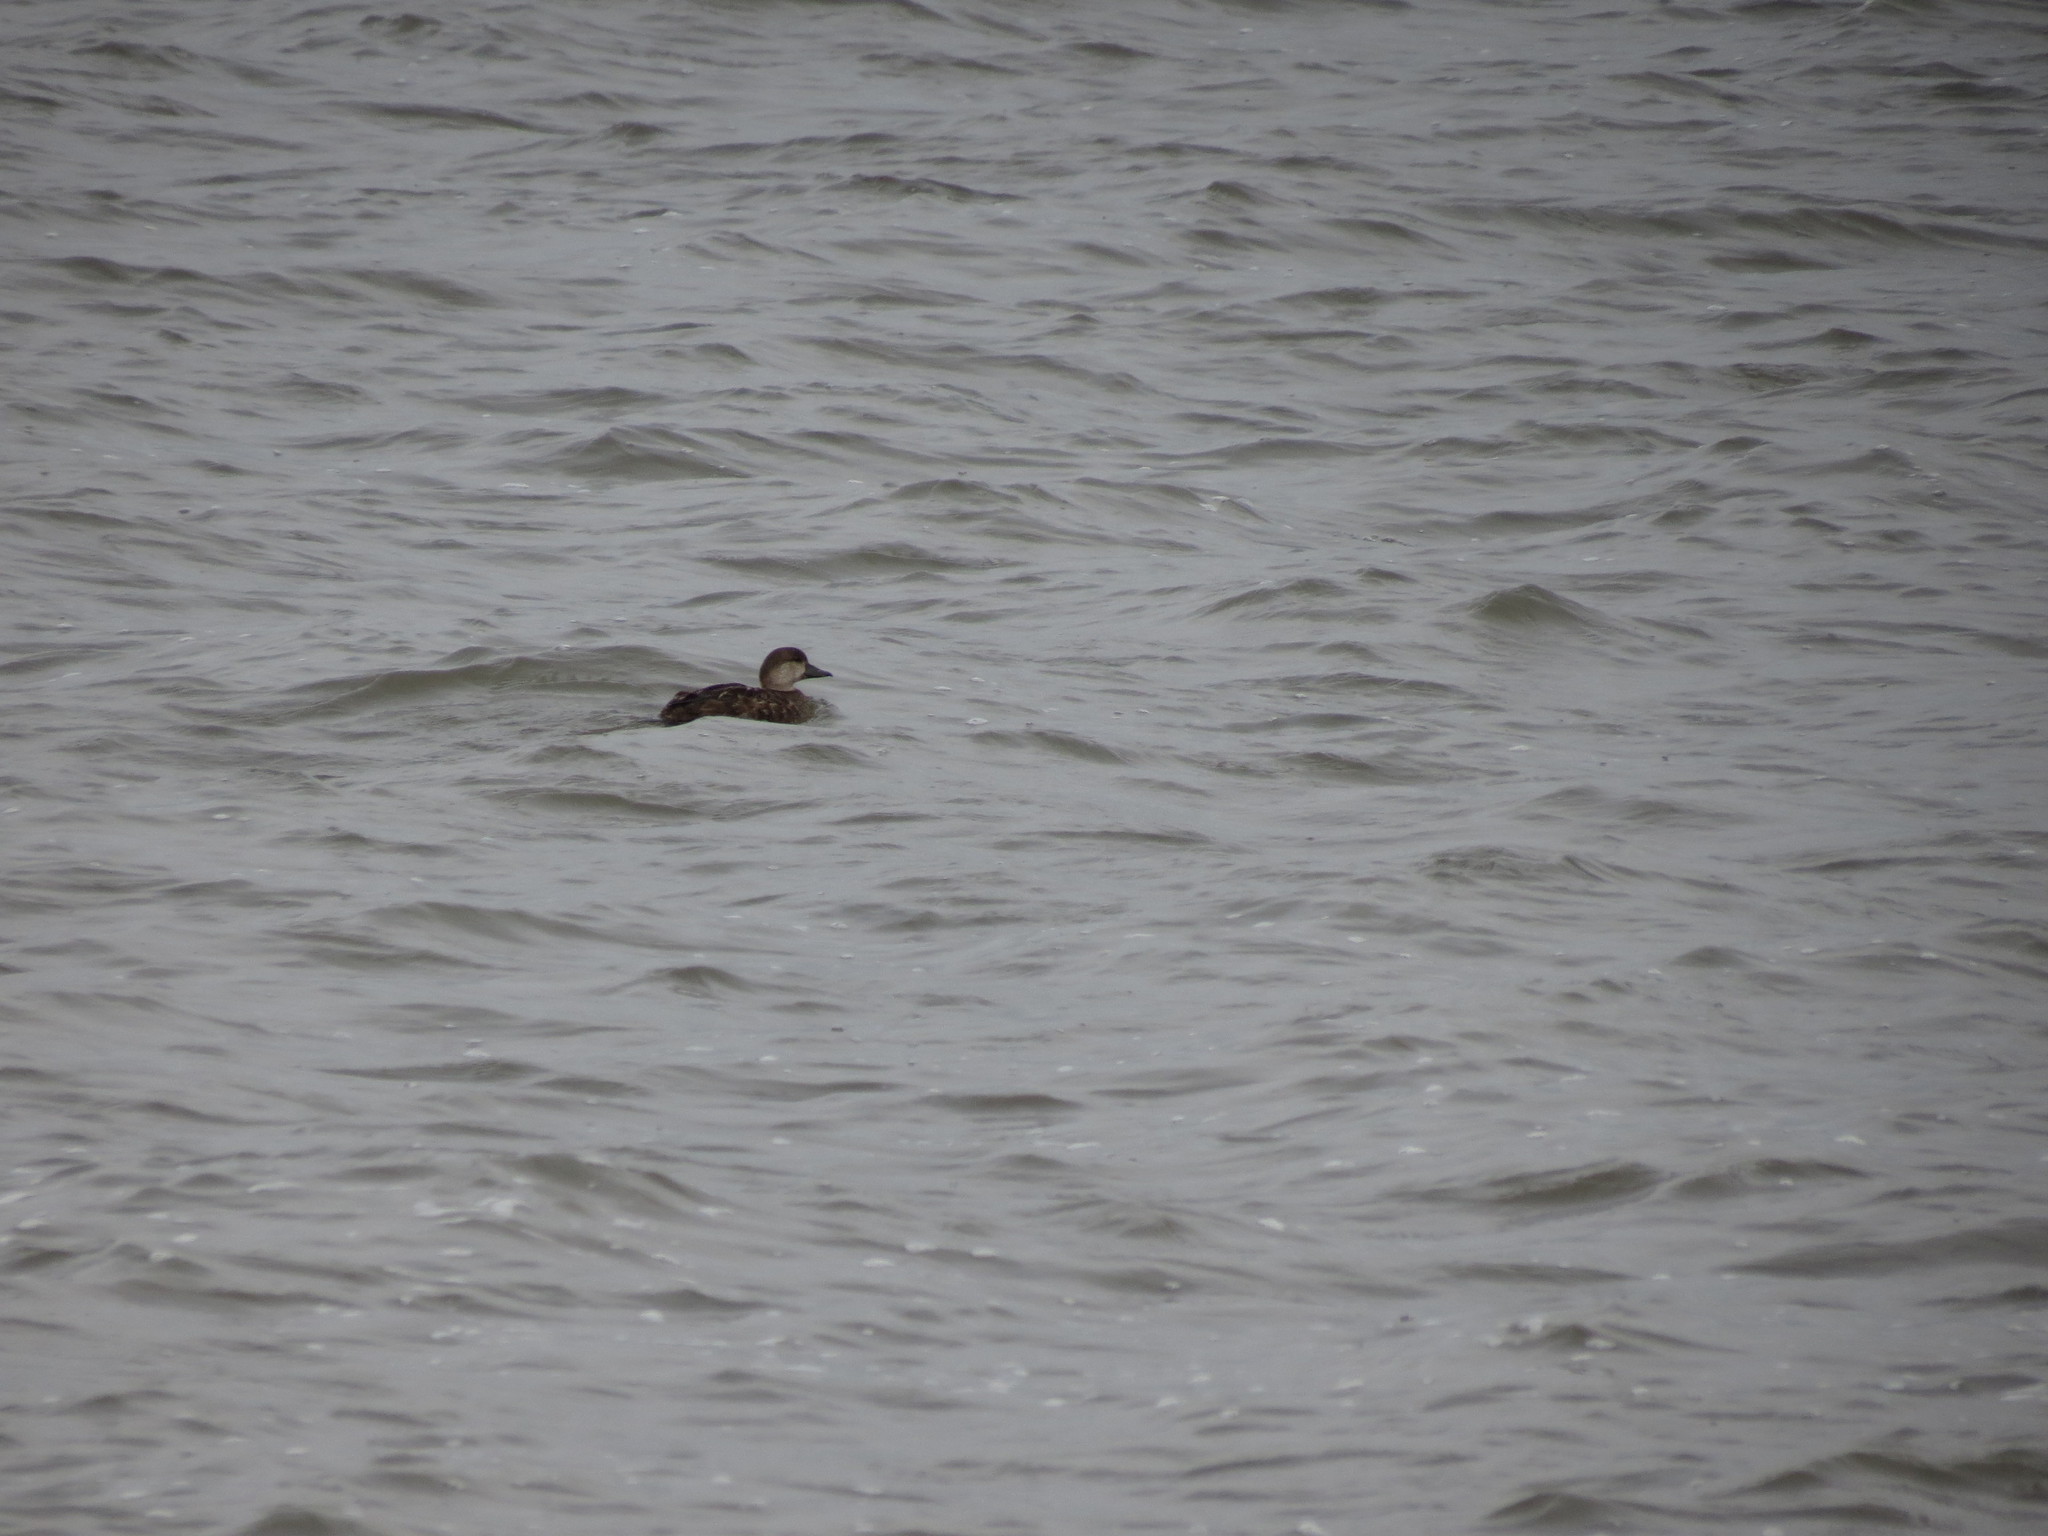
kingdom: Animalia
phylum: Chordata
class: Aves
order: Anseriformes
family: Anatidae
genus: Melanitta
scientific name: Melanitta americana
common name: Black scoter
